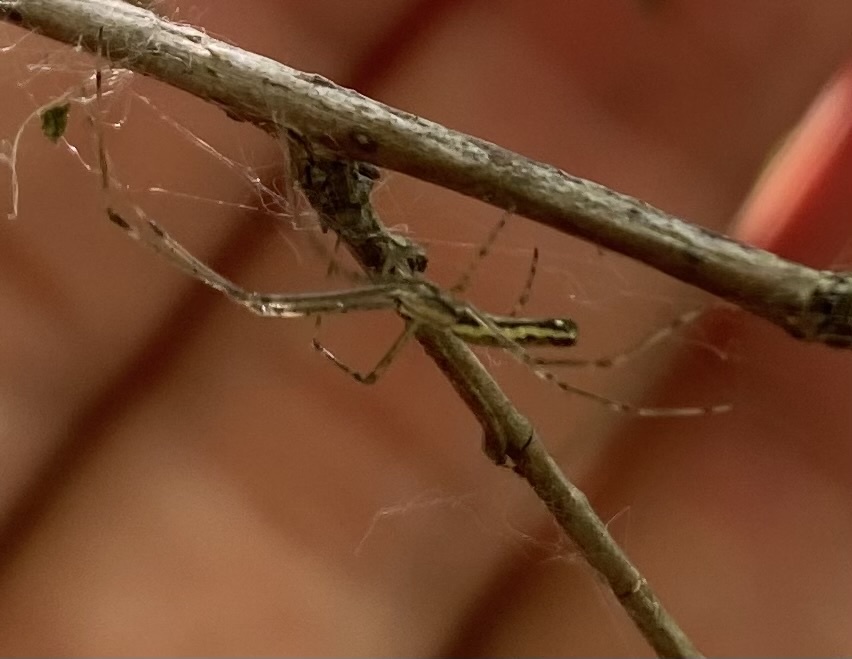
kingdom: Animalia
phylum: Arthropoda
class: Arachnida
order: Araneae
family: Tetragnathidae
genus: Tetragnatha
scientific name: Tetragnatha
